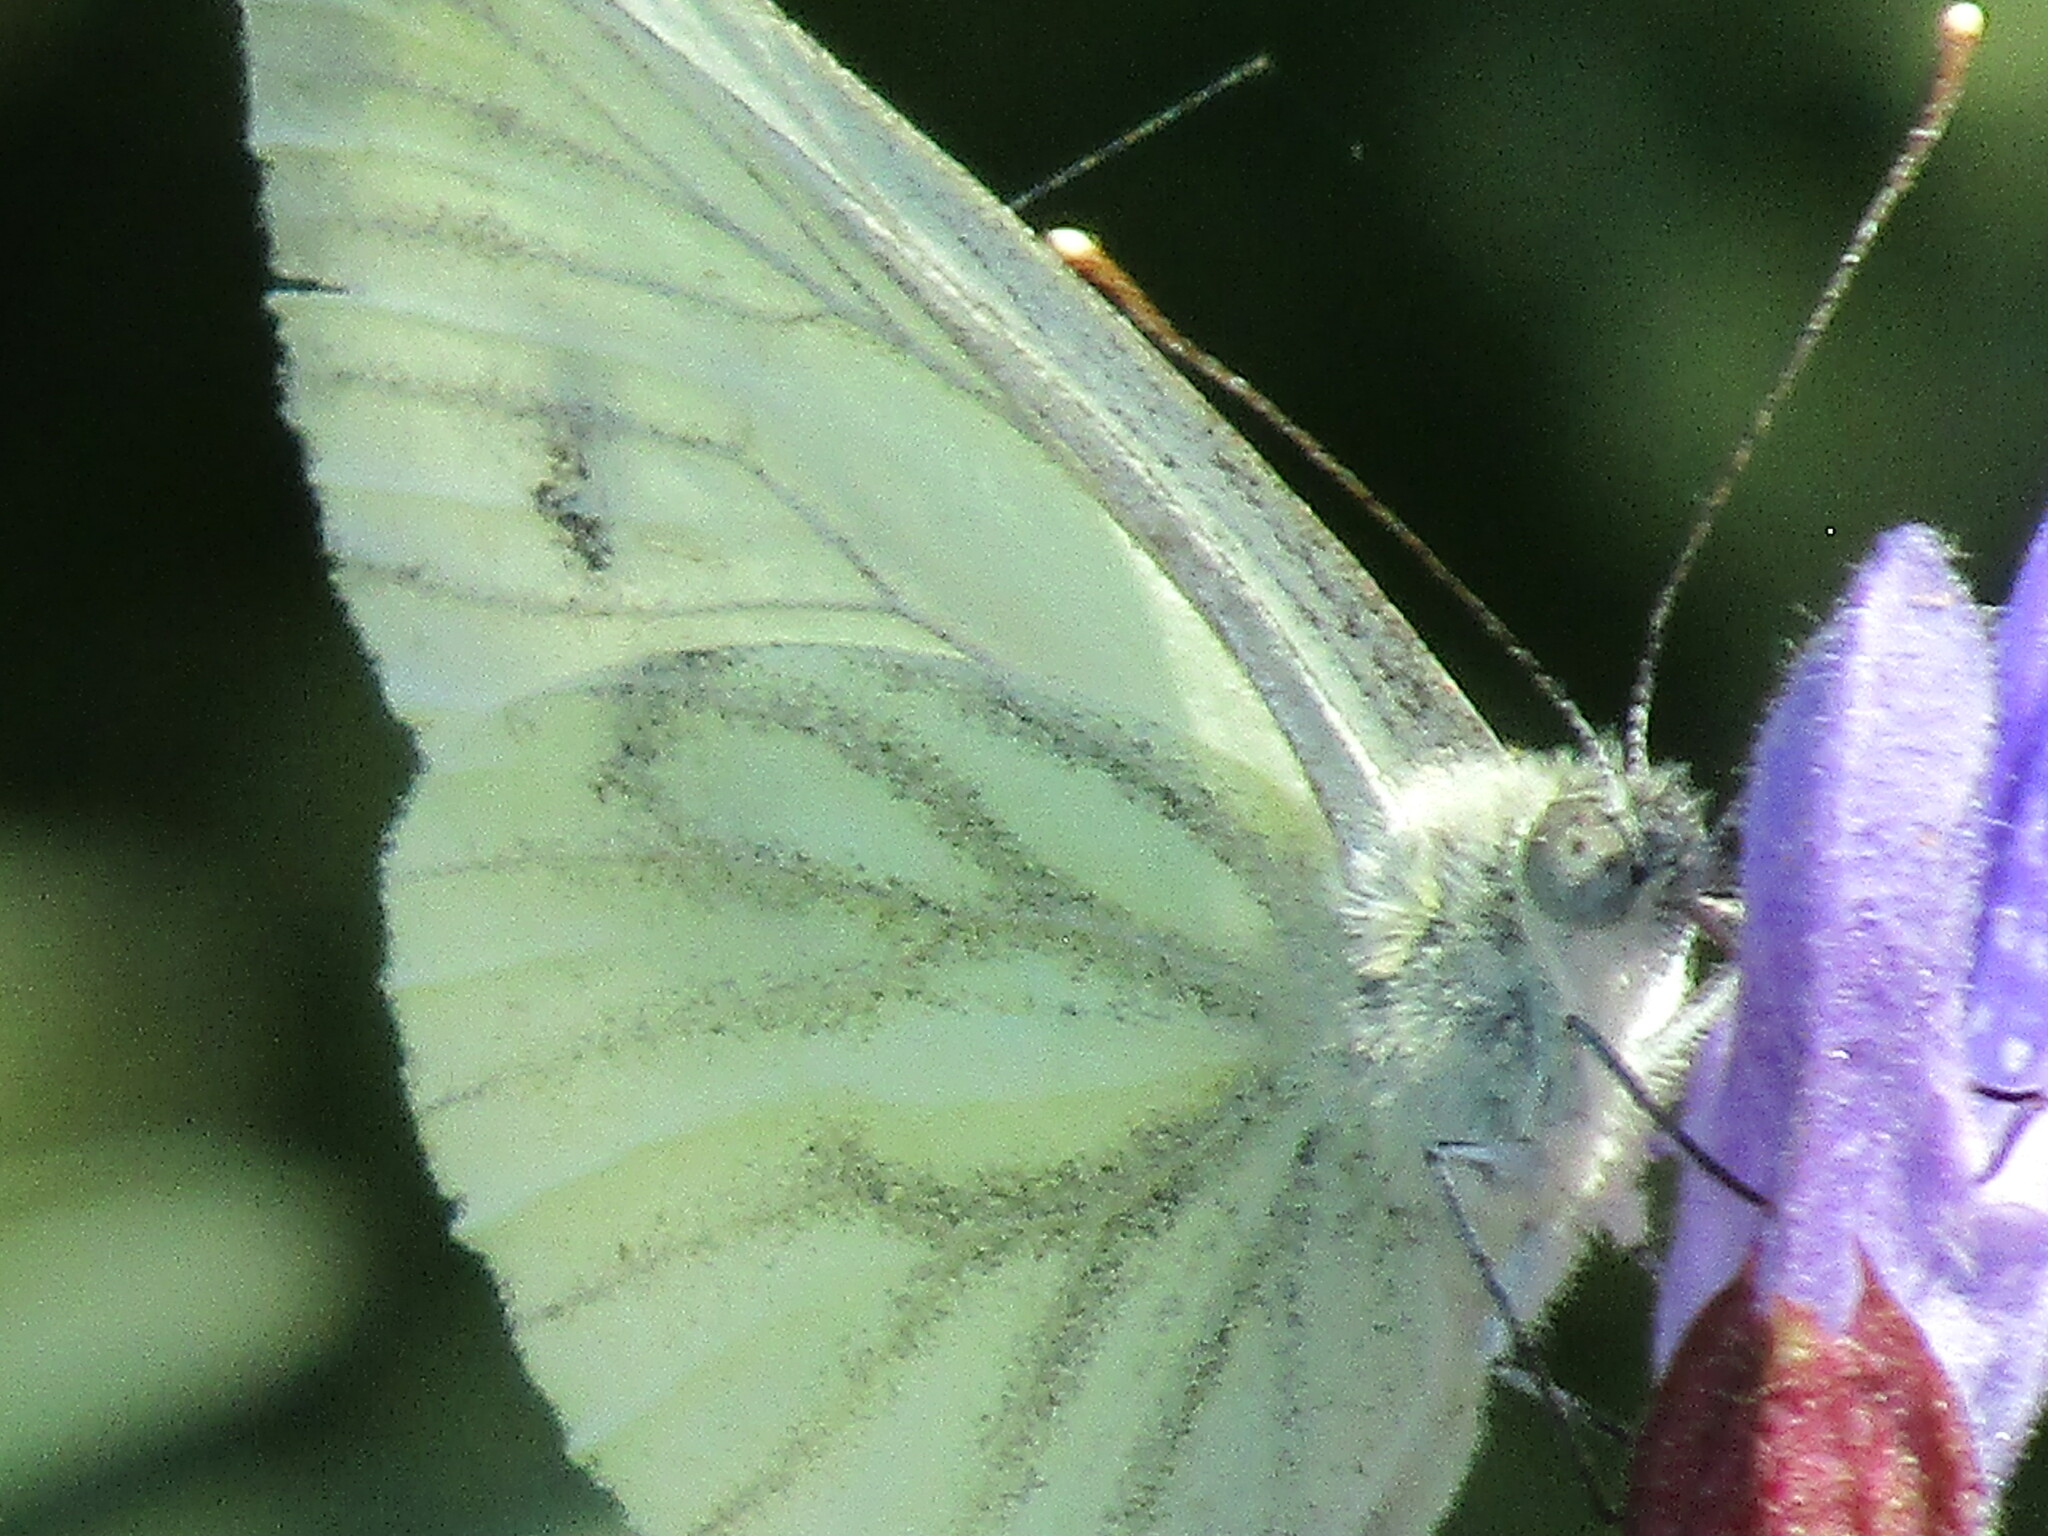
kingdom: Animalia
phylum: Arthropoda
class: Insecta
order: Lepidoptera
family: Pieridae
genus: Pieris
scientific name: Pieris napi
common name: Green-veined white
